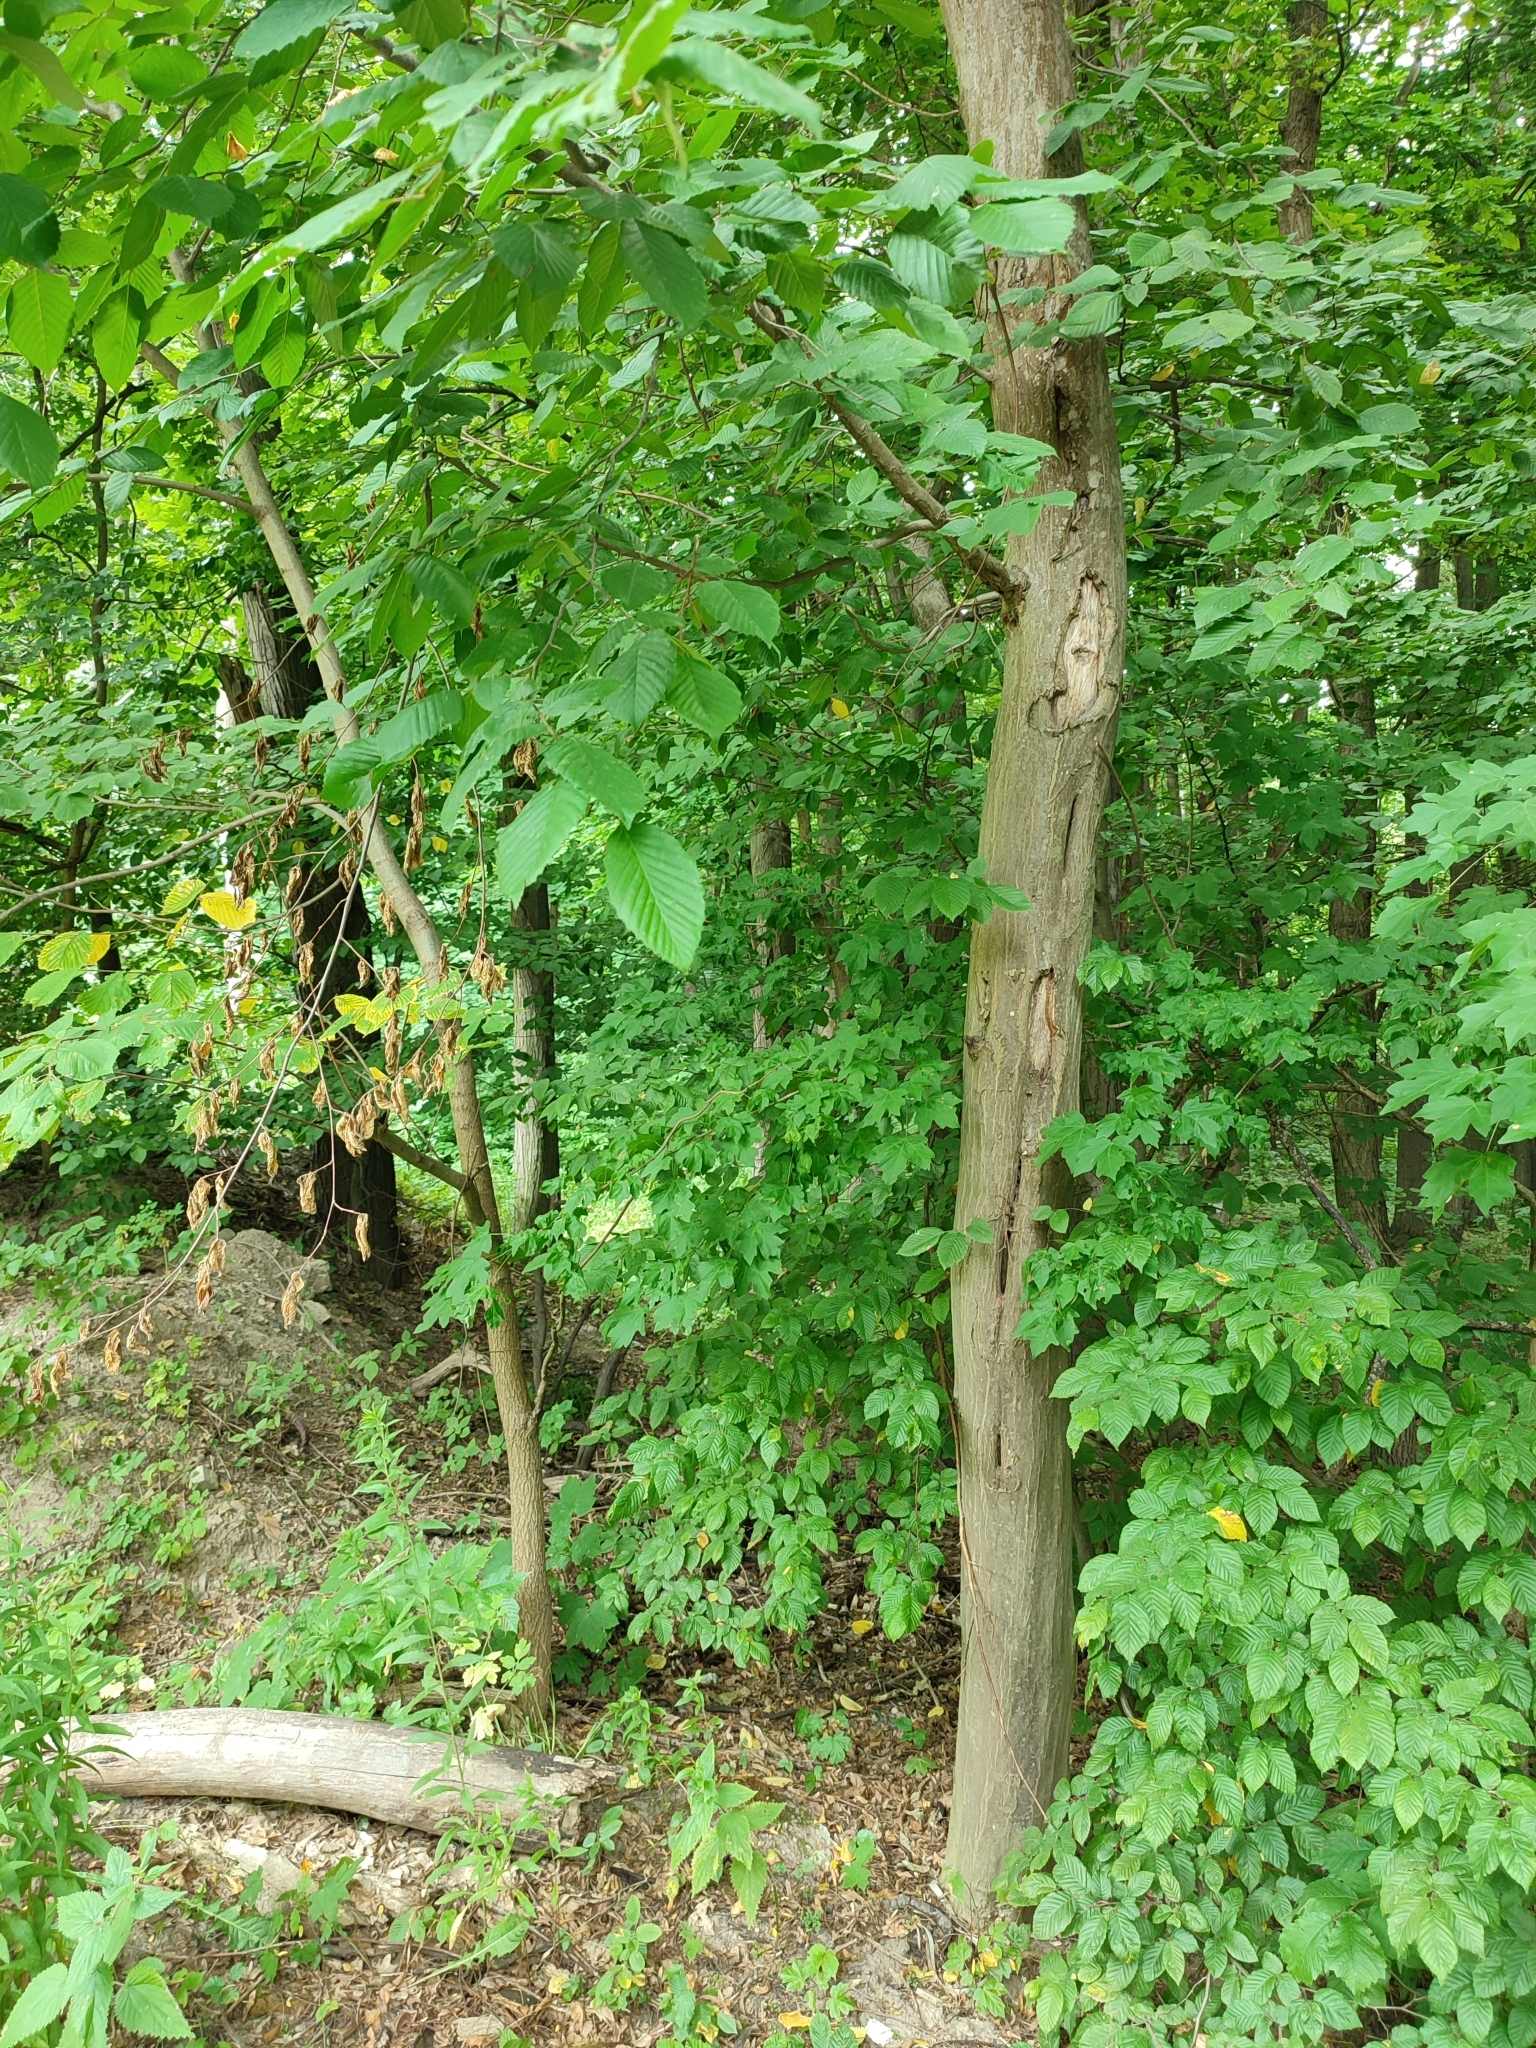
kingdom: Plantae
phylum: Tracheophyta
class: Magnoliopsida
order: Fagales
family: Betulaceae
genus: Carpinus
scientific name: Carpinus betulus
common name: Hornbeam
